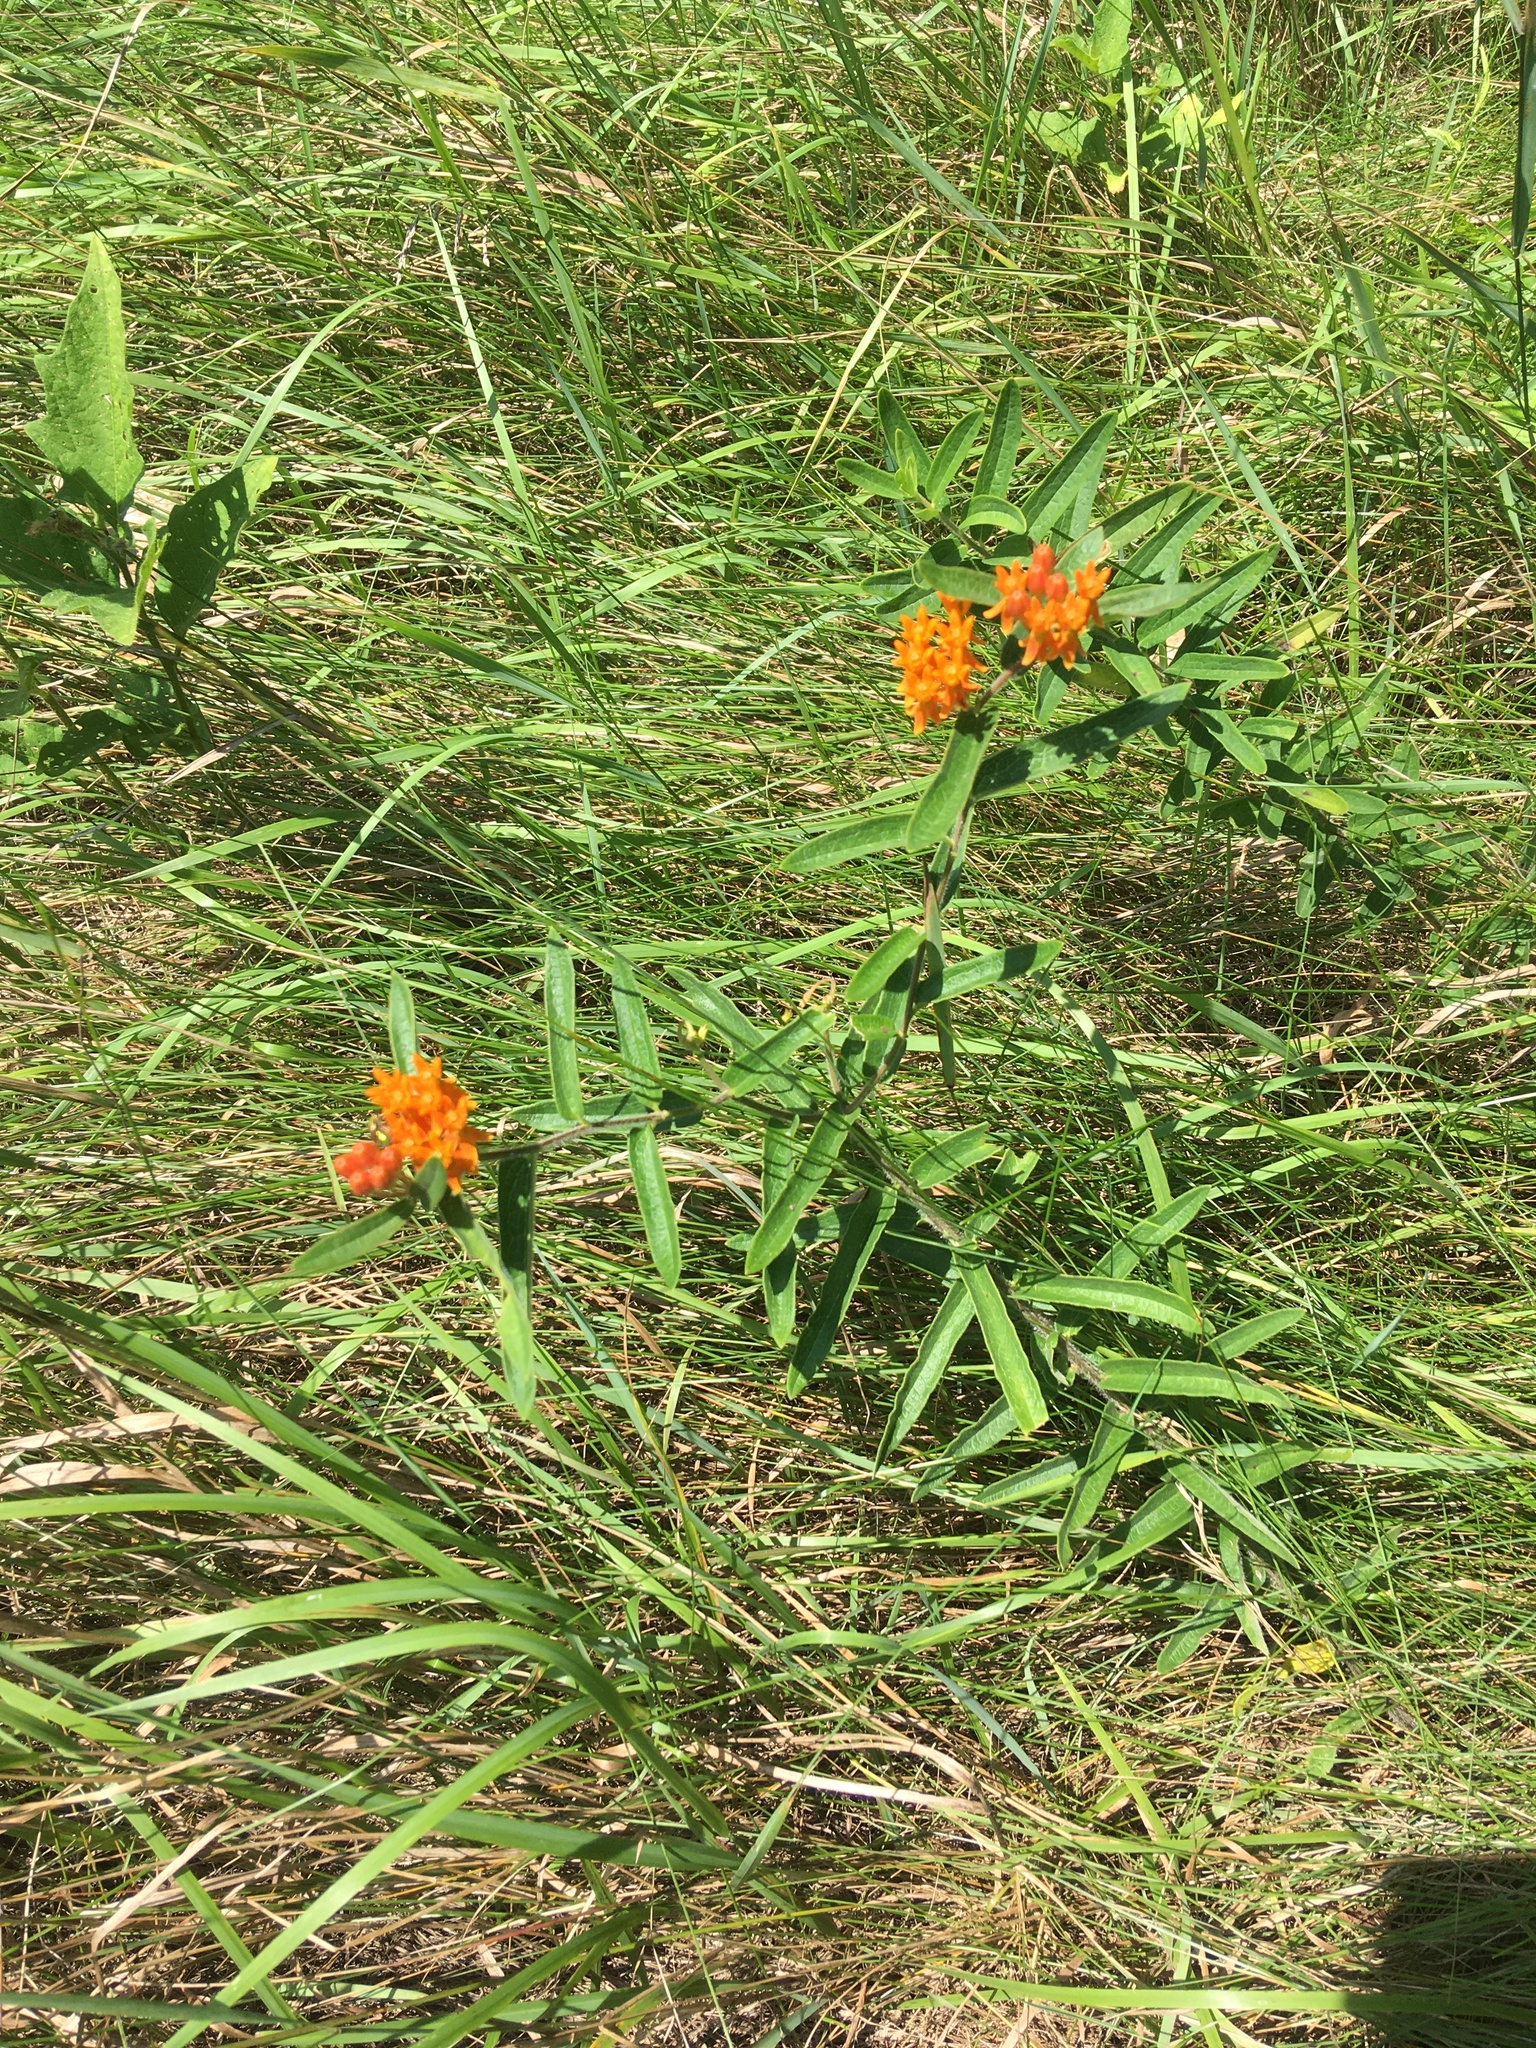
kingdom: Plantae
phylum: Tracheophyta
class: Magnoliopsida
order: Gentianales
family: Apocynaceae
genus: Asclepias
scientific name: Asclepias tuberosa
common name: Butterfly milkweed
